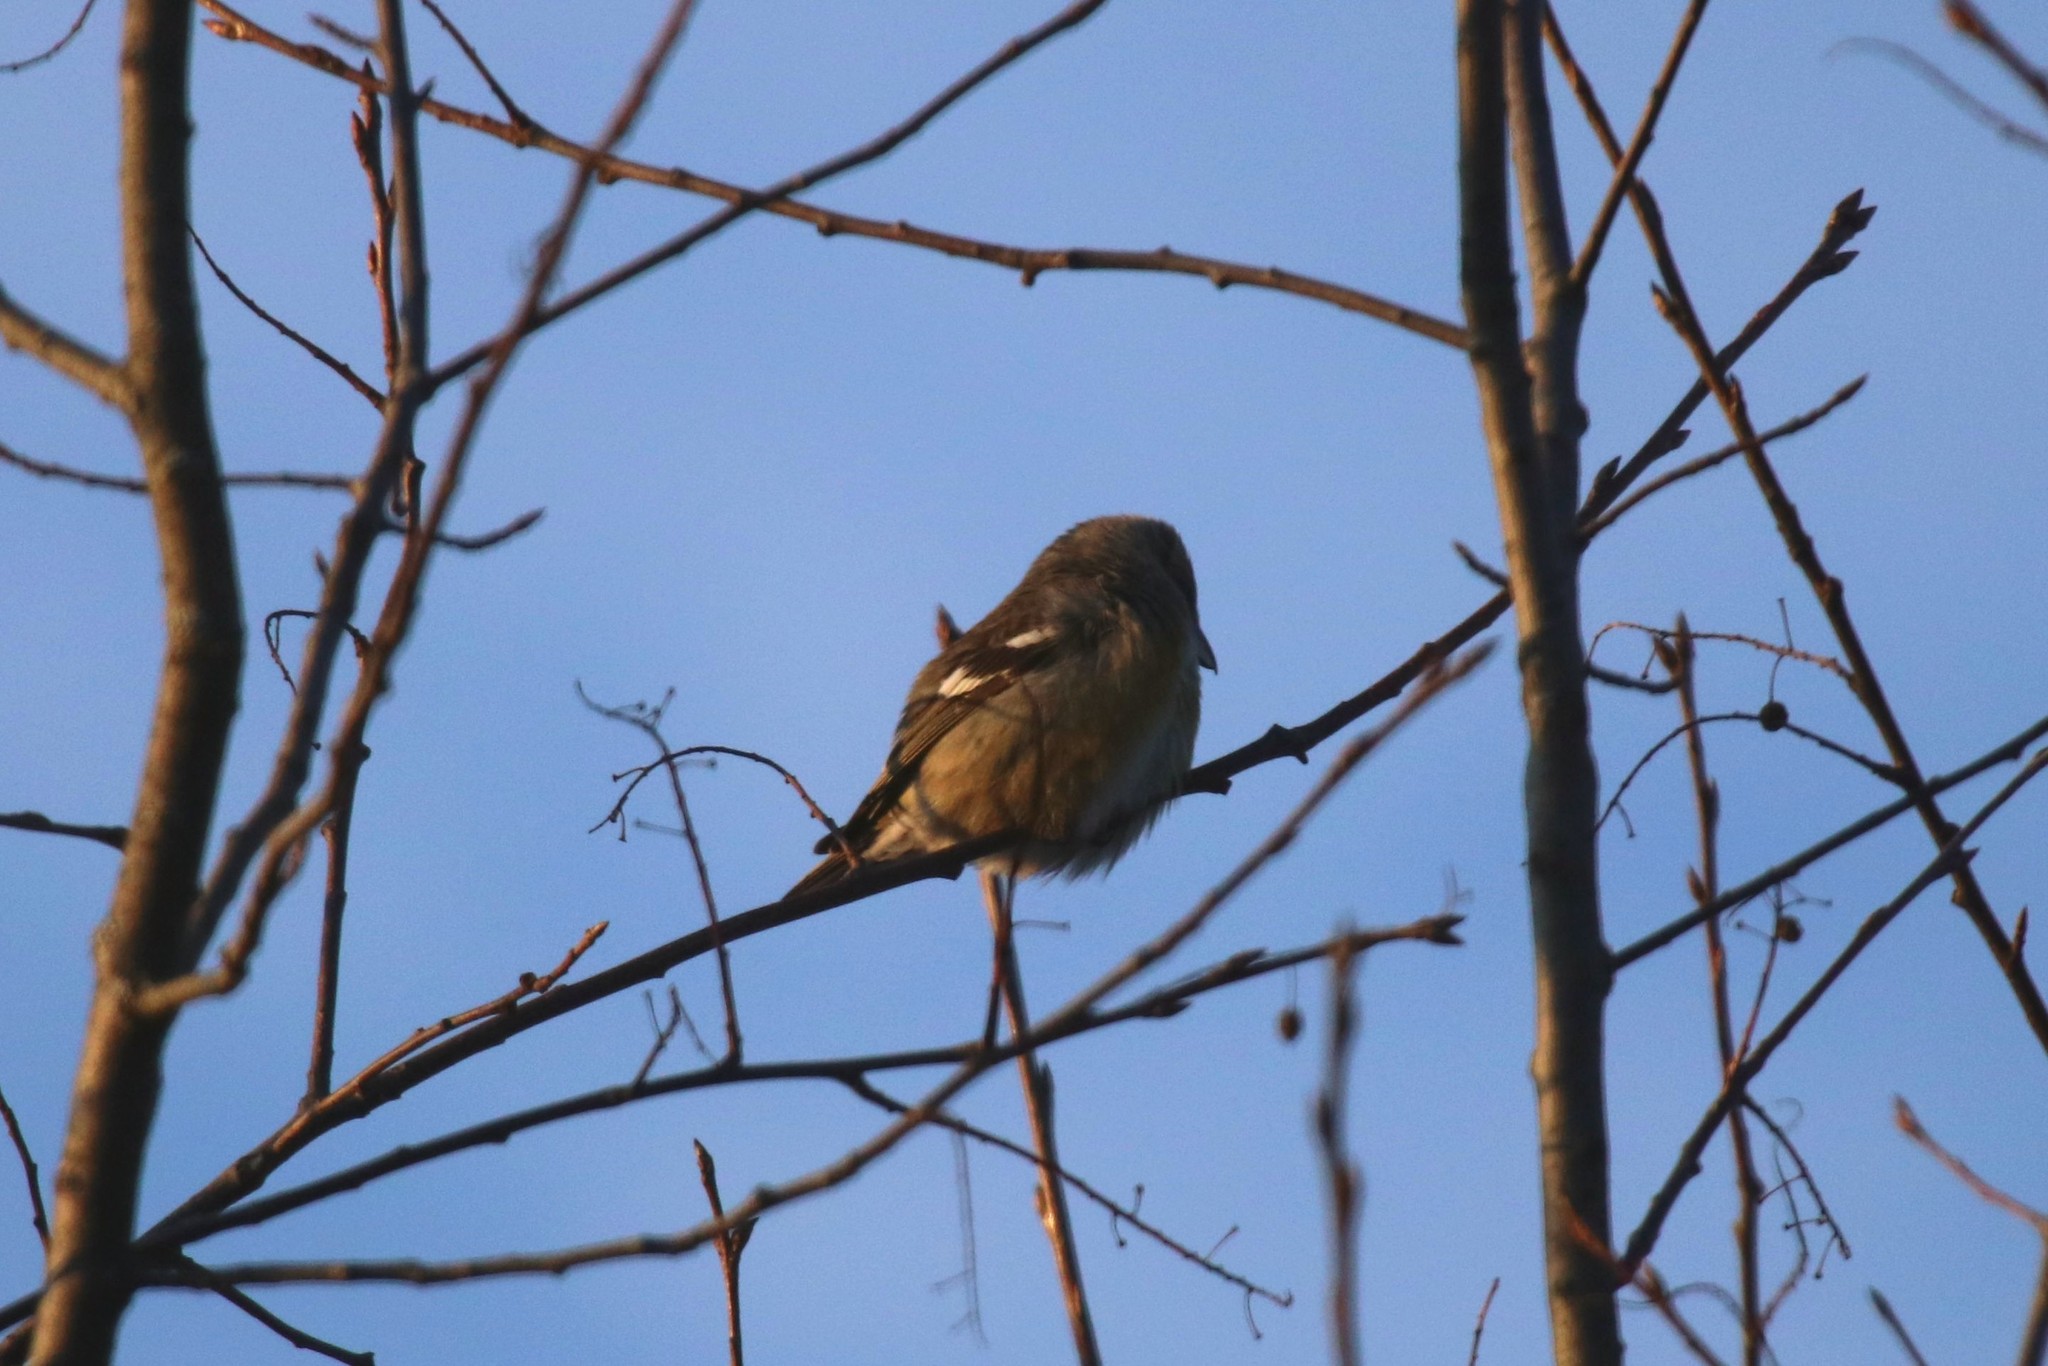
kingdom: Animalia
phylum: Chordata
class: Aves
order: Passeriformes
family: Fringillidae
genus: Loxia
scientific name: Loxia leucoptera
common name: Two-barred crossbill
